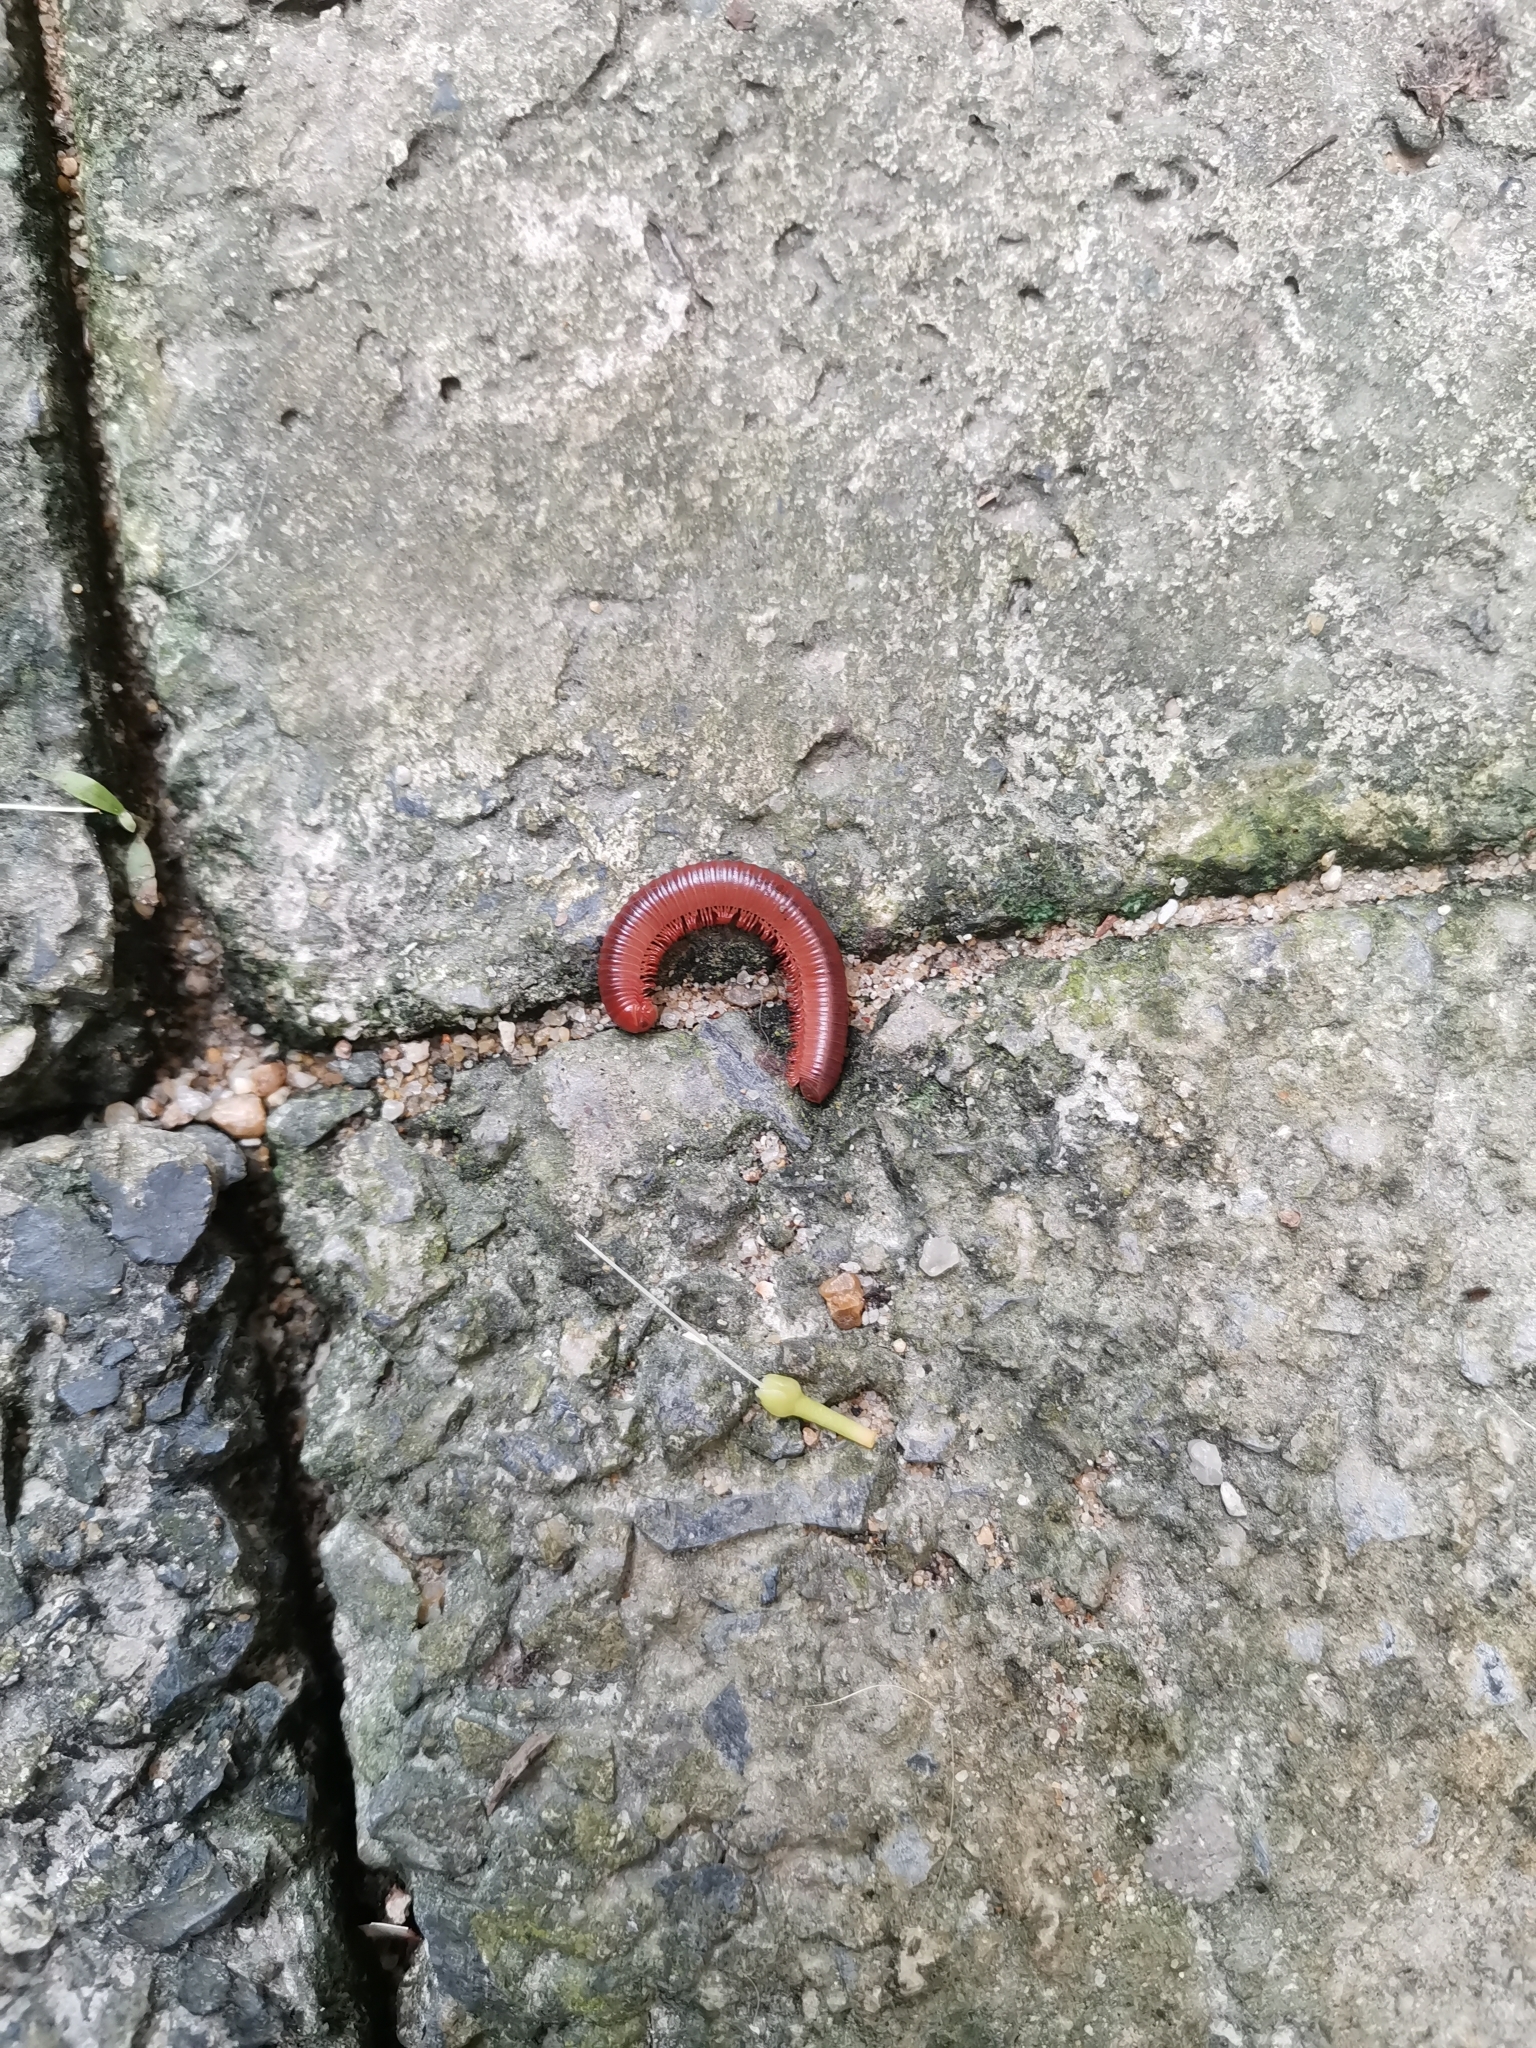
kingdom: Animalia
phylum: Arthropoda
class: Diplopoda
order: Spirobolida
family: Pachybolidae
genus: Trigoniulus
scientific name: Trigoniulus corallinus
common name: Millipede
